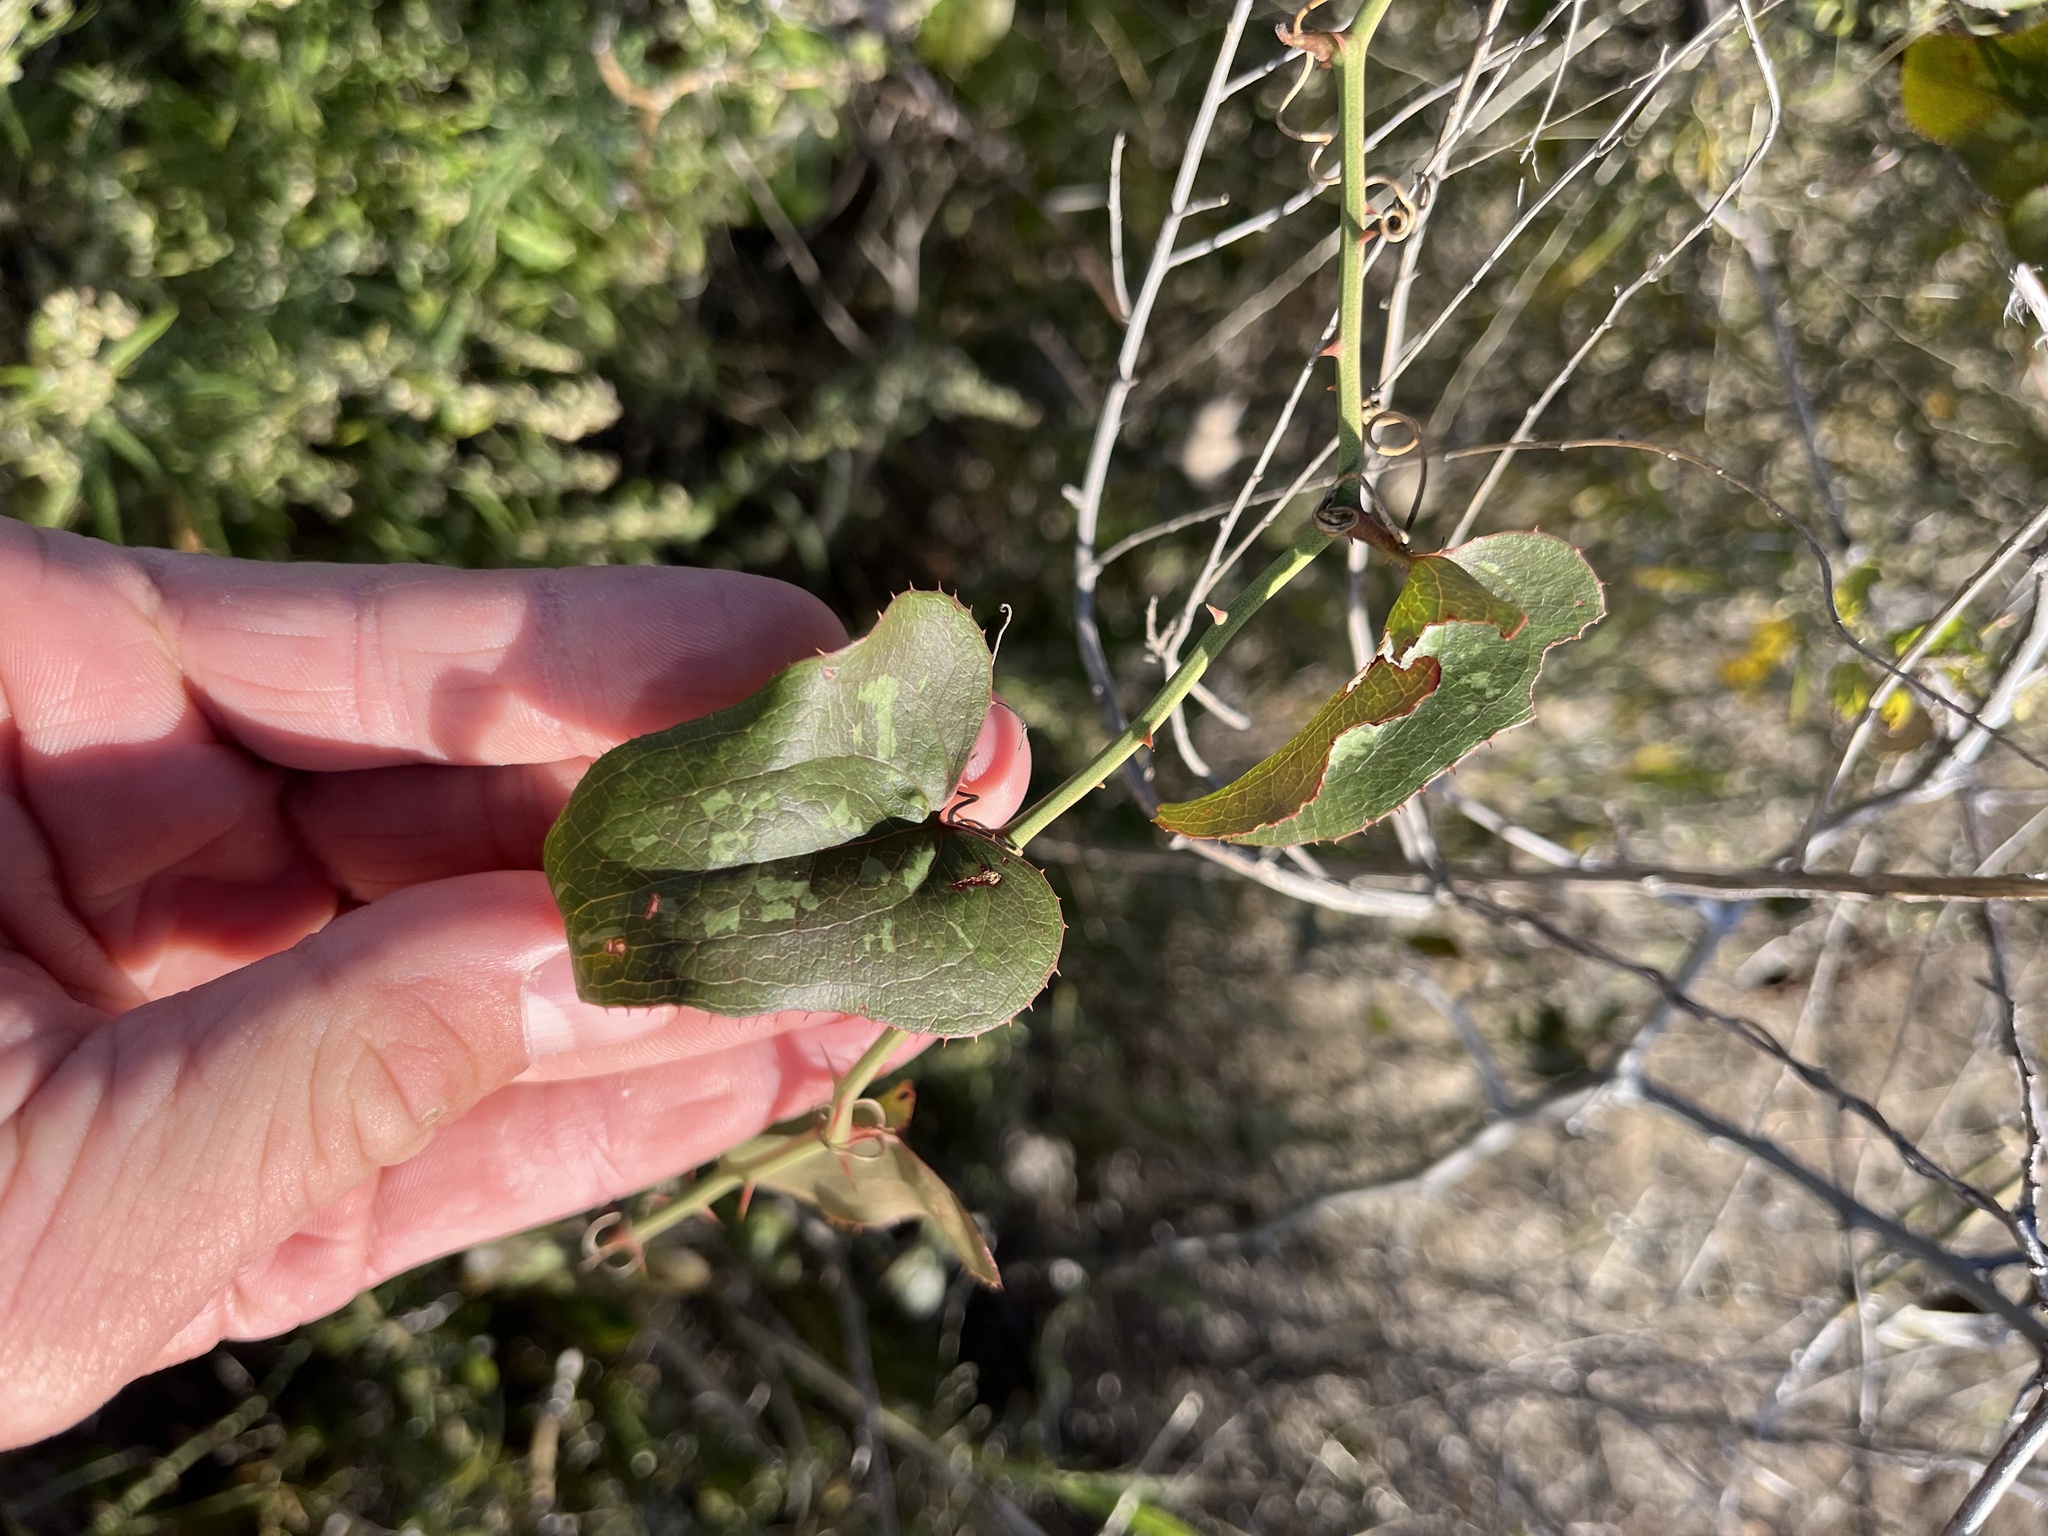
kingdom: Plantae
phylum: Tracheophyta
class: Liliopsida
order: Liliales
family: Smilacaceae
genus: Smilax
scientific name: Smilax bona-nox
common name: Catbrier
